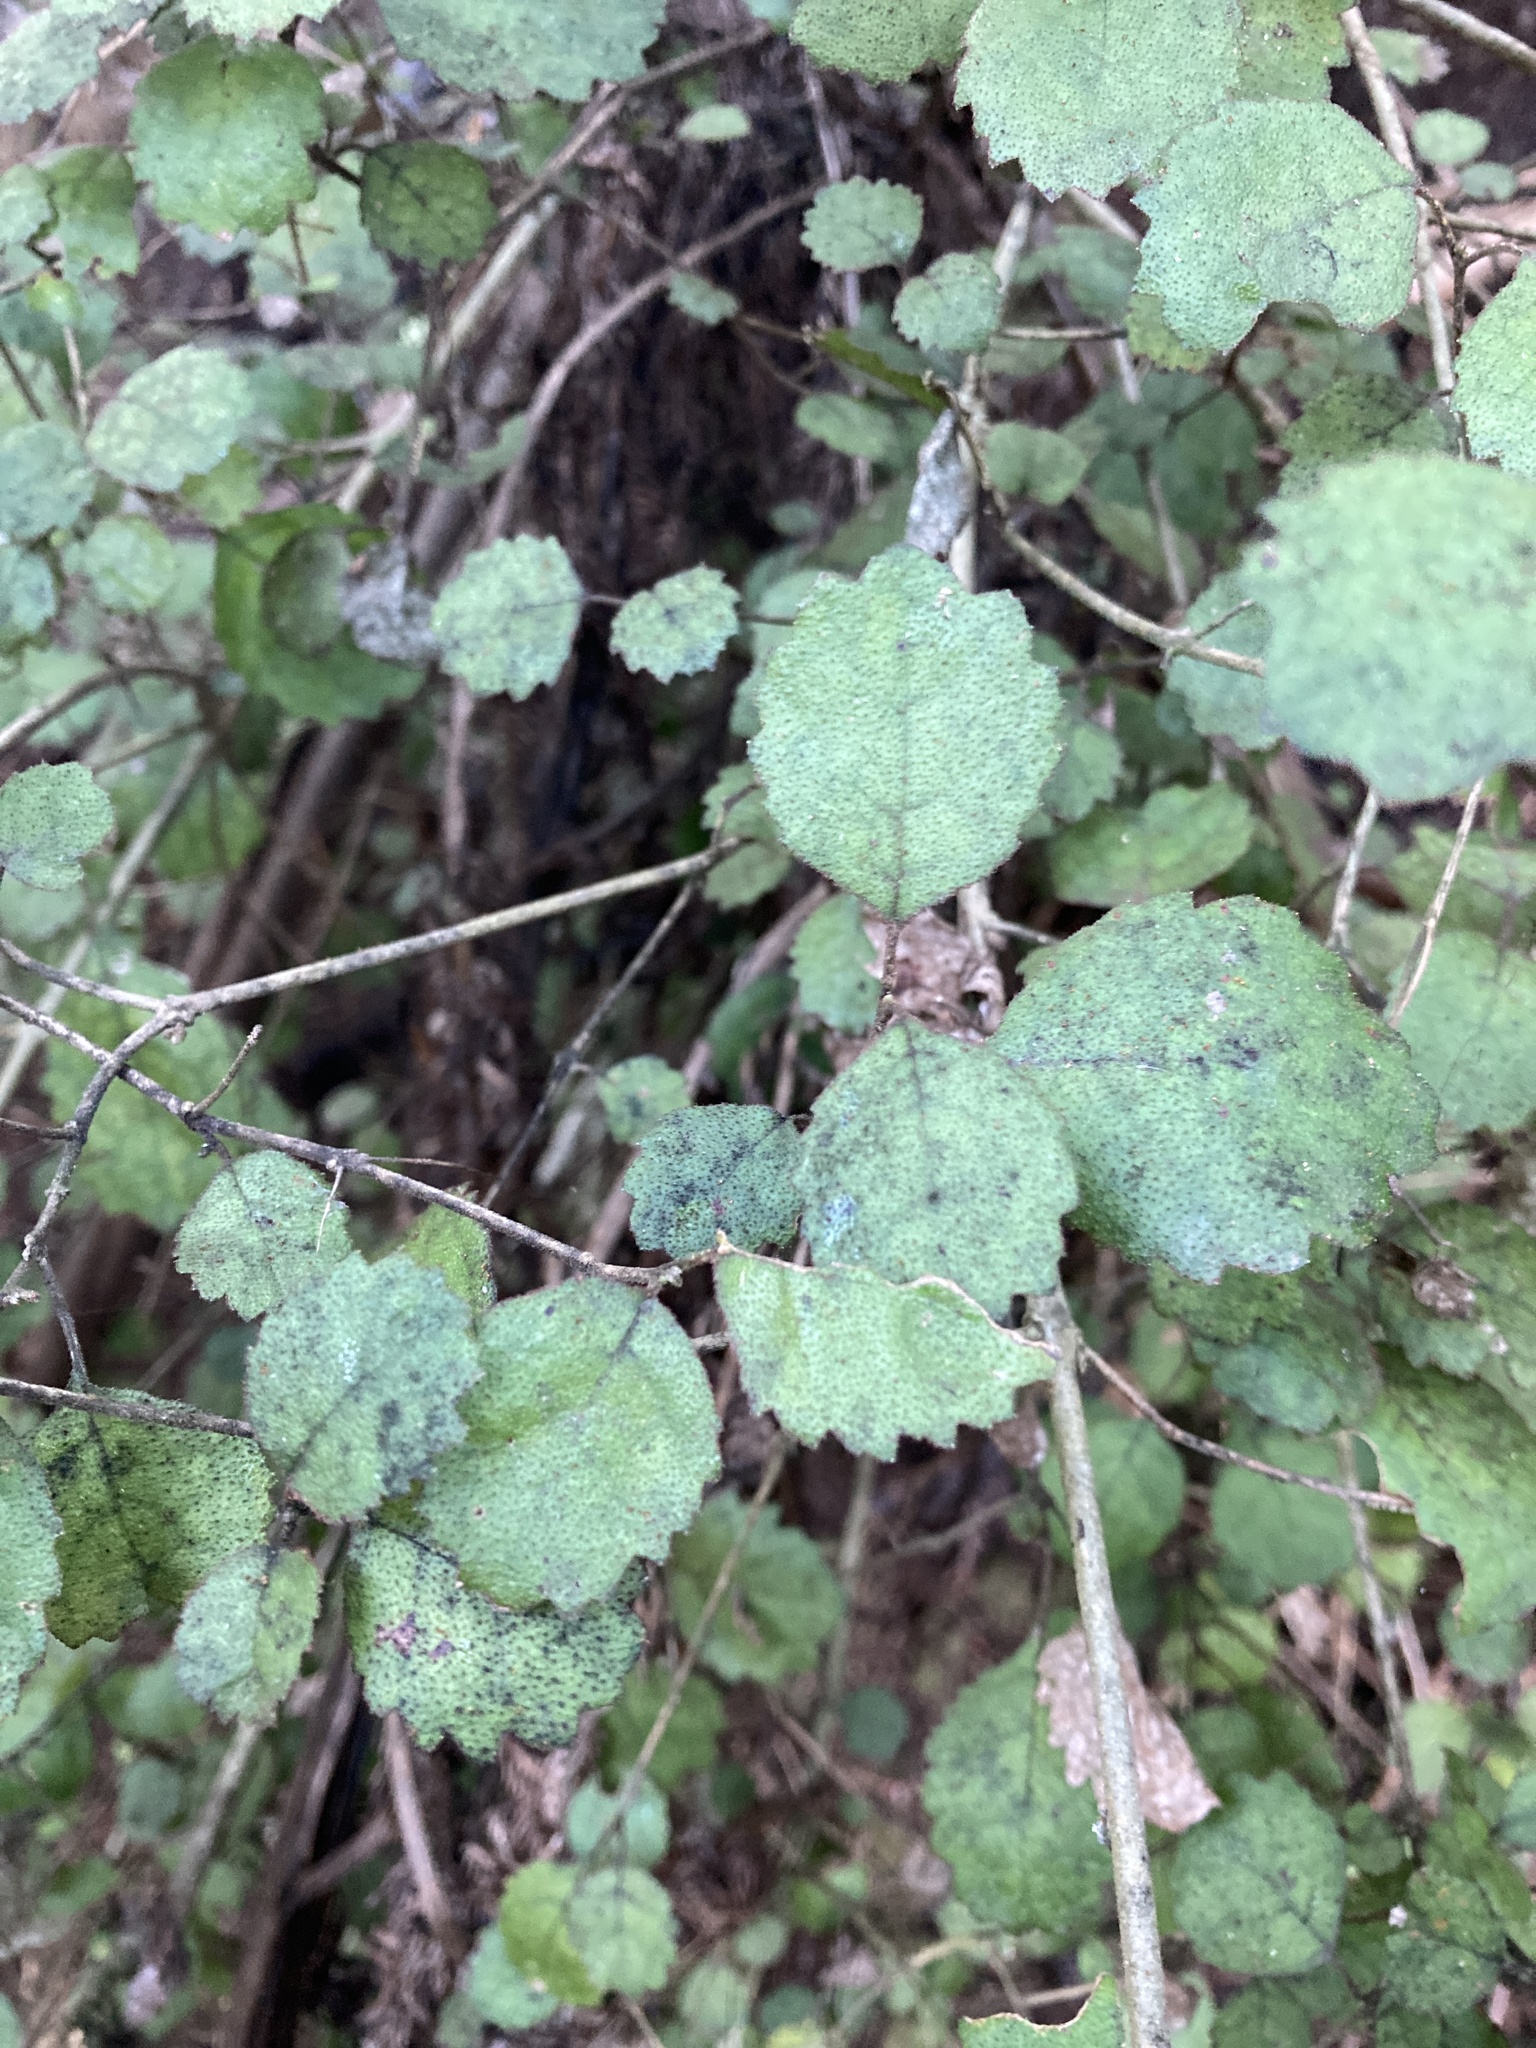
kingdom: Plantae
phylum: Tracheophyta
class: Magnoliopsida
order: Lamiales
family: Gesneriaceae
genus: Rhabdothamnus
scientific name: Rhabdothamnus solandri
